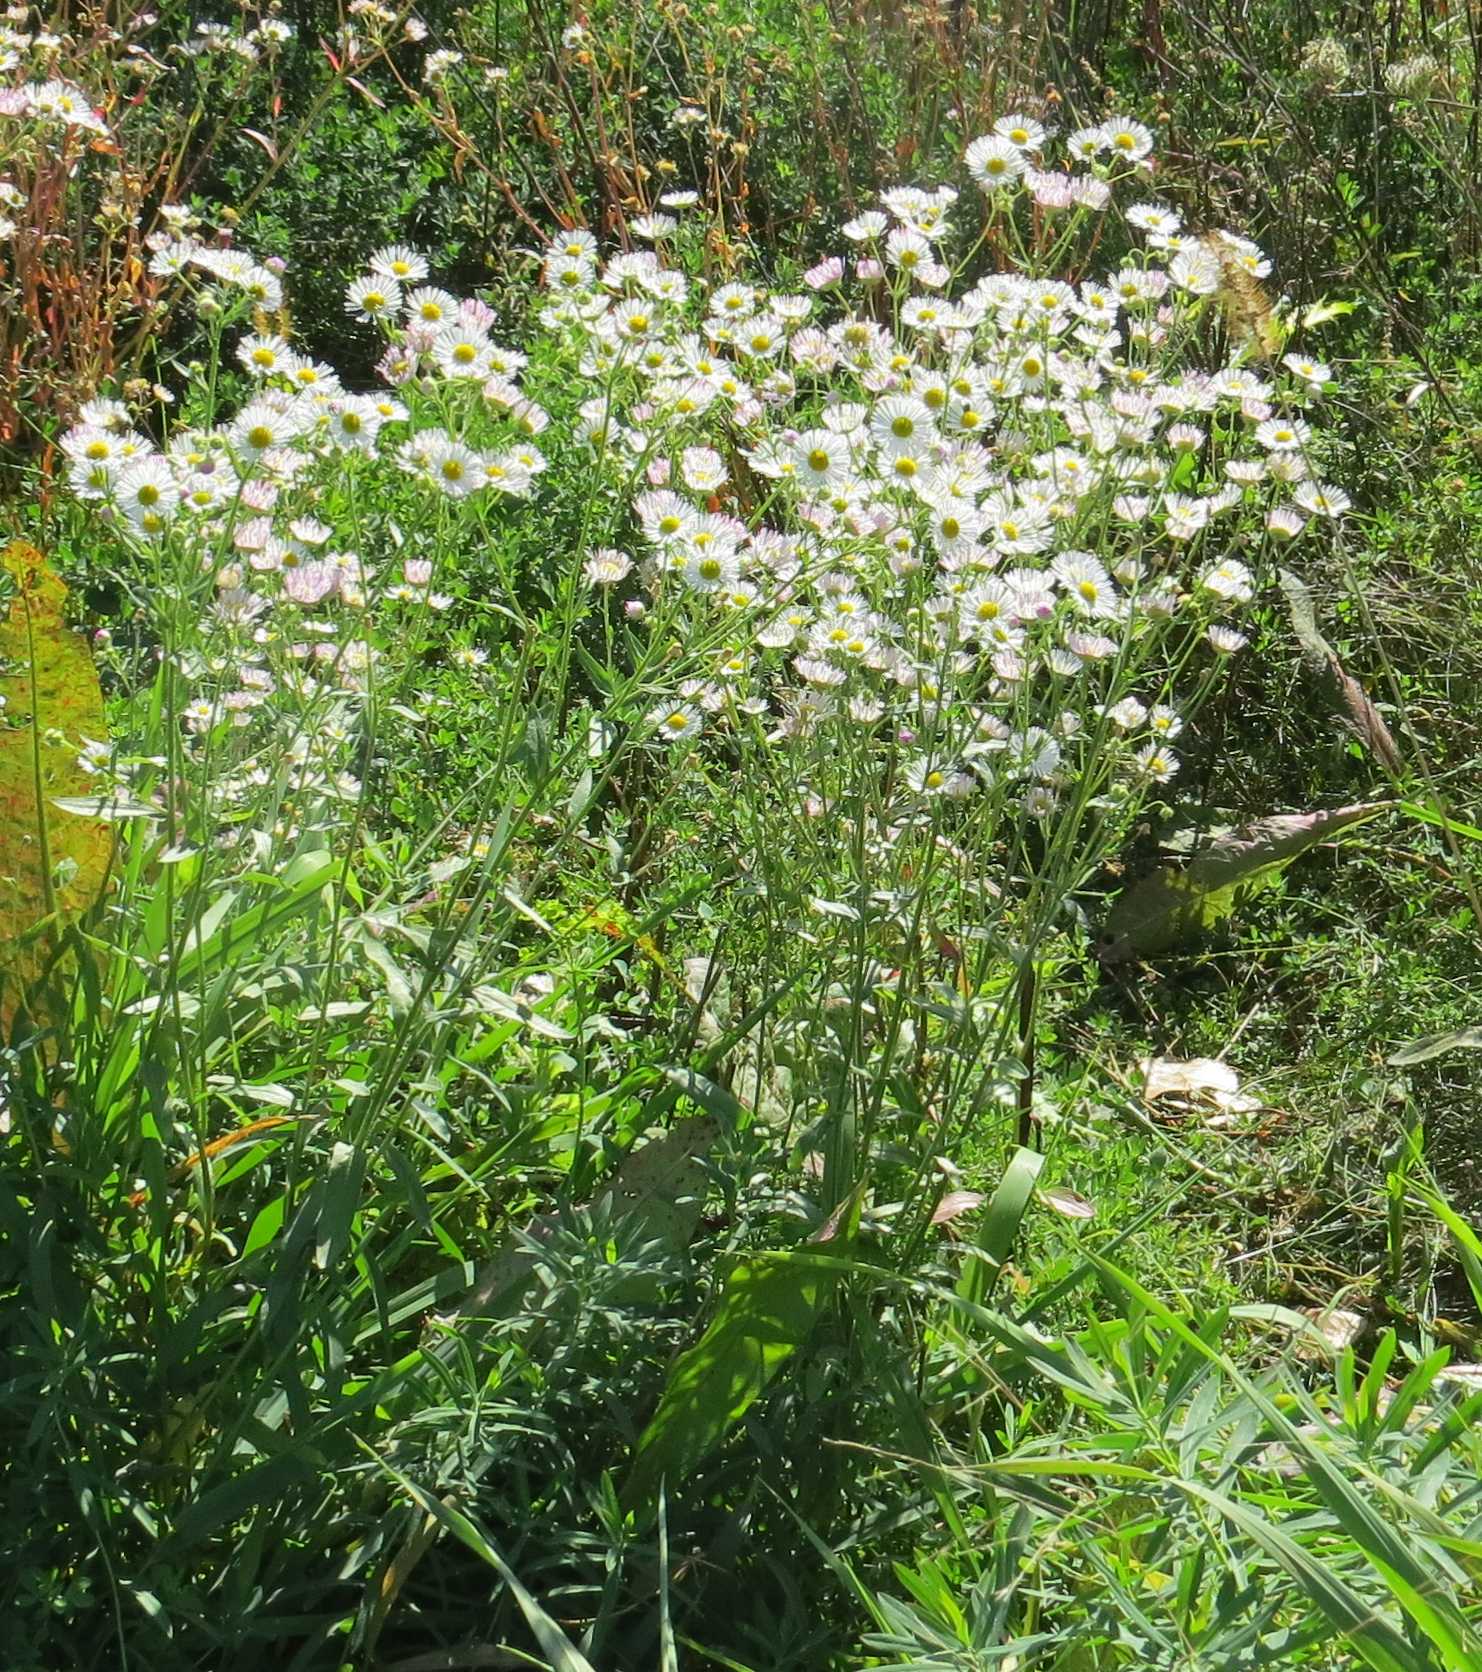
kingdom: Plantae
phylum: Tracheophyta
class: Magnoliopsida
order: Asterales
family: Asteraceae
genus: Erigeron
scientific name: Erigeron strigosus
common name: Common eastern fleabane
